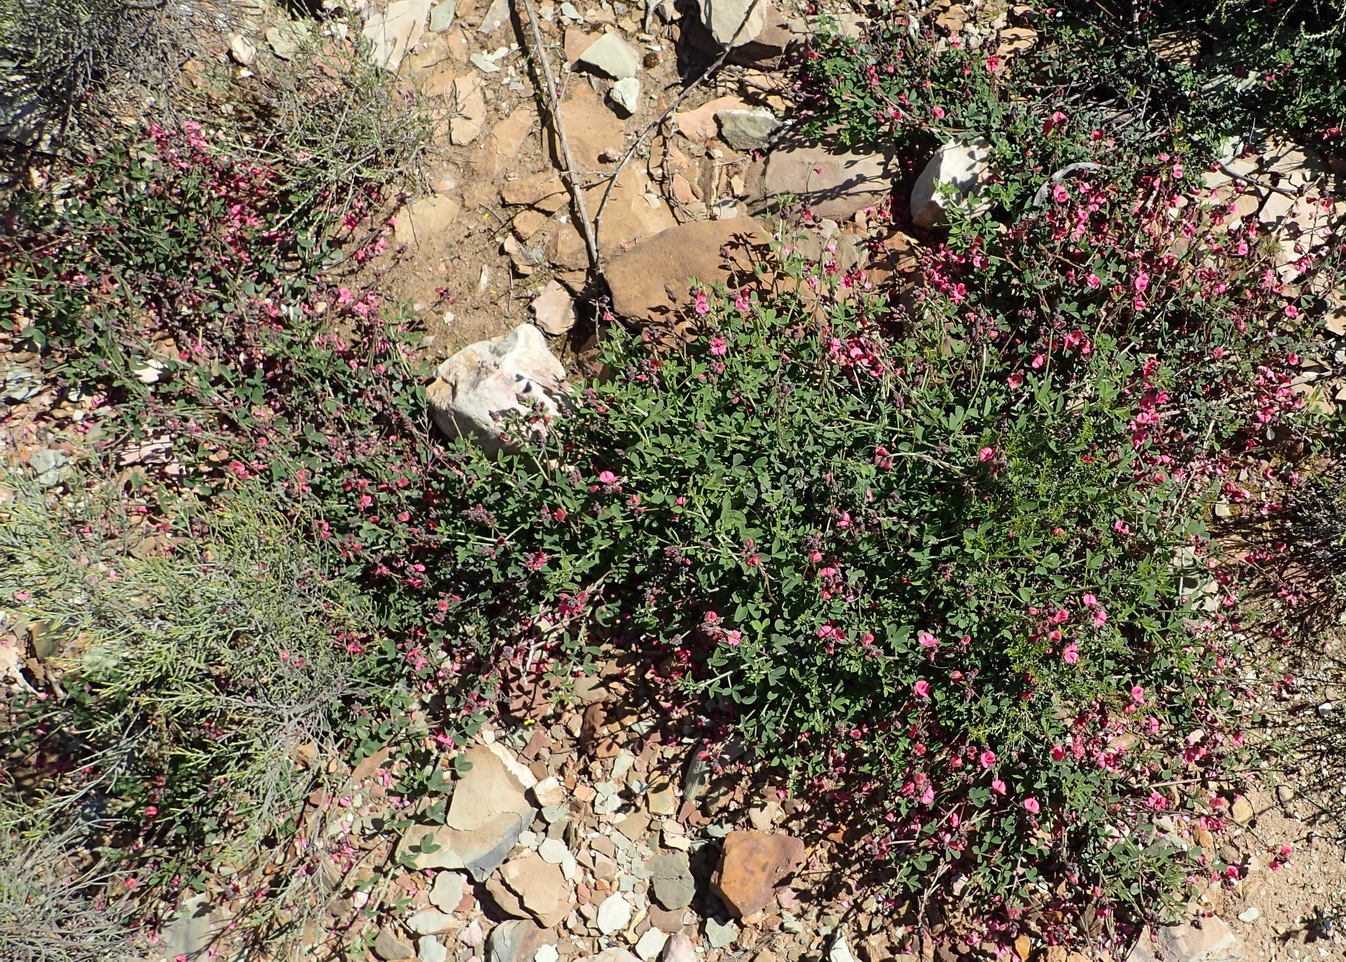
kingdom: Plantae
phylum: Tracheophyta
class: Magnoliopsida
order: Fabales
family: Fabaceae
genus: Indigofera
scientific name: Indigofera heterophylla
